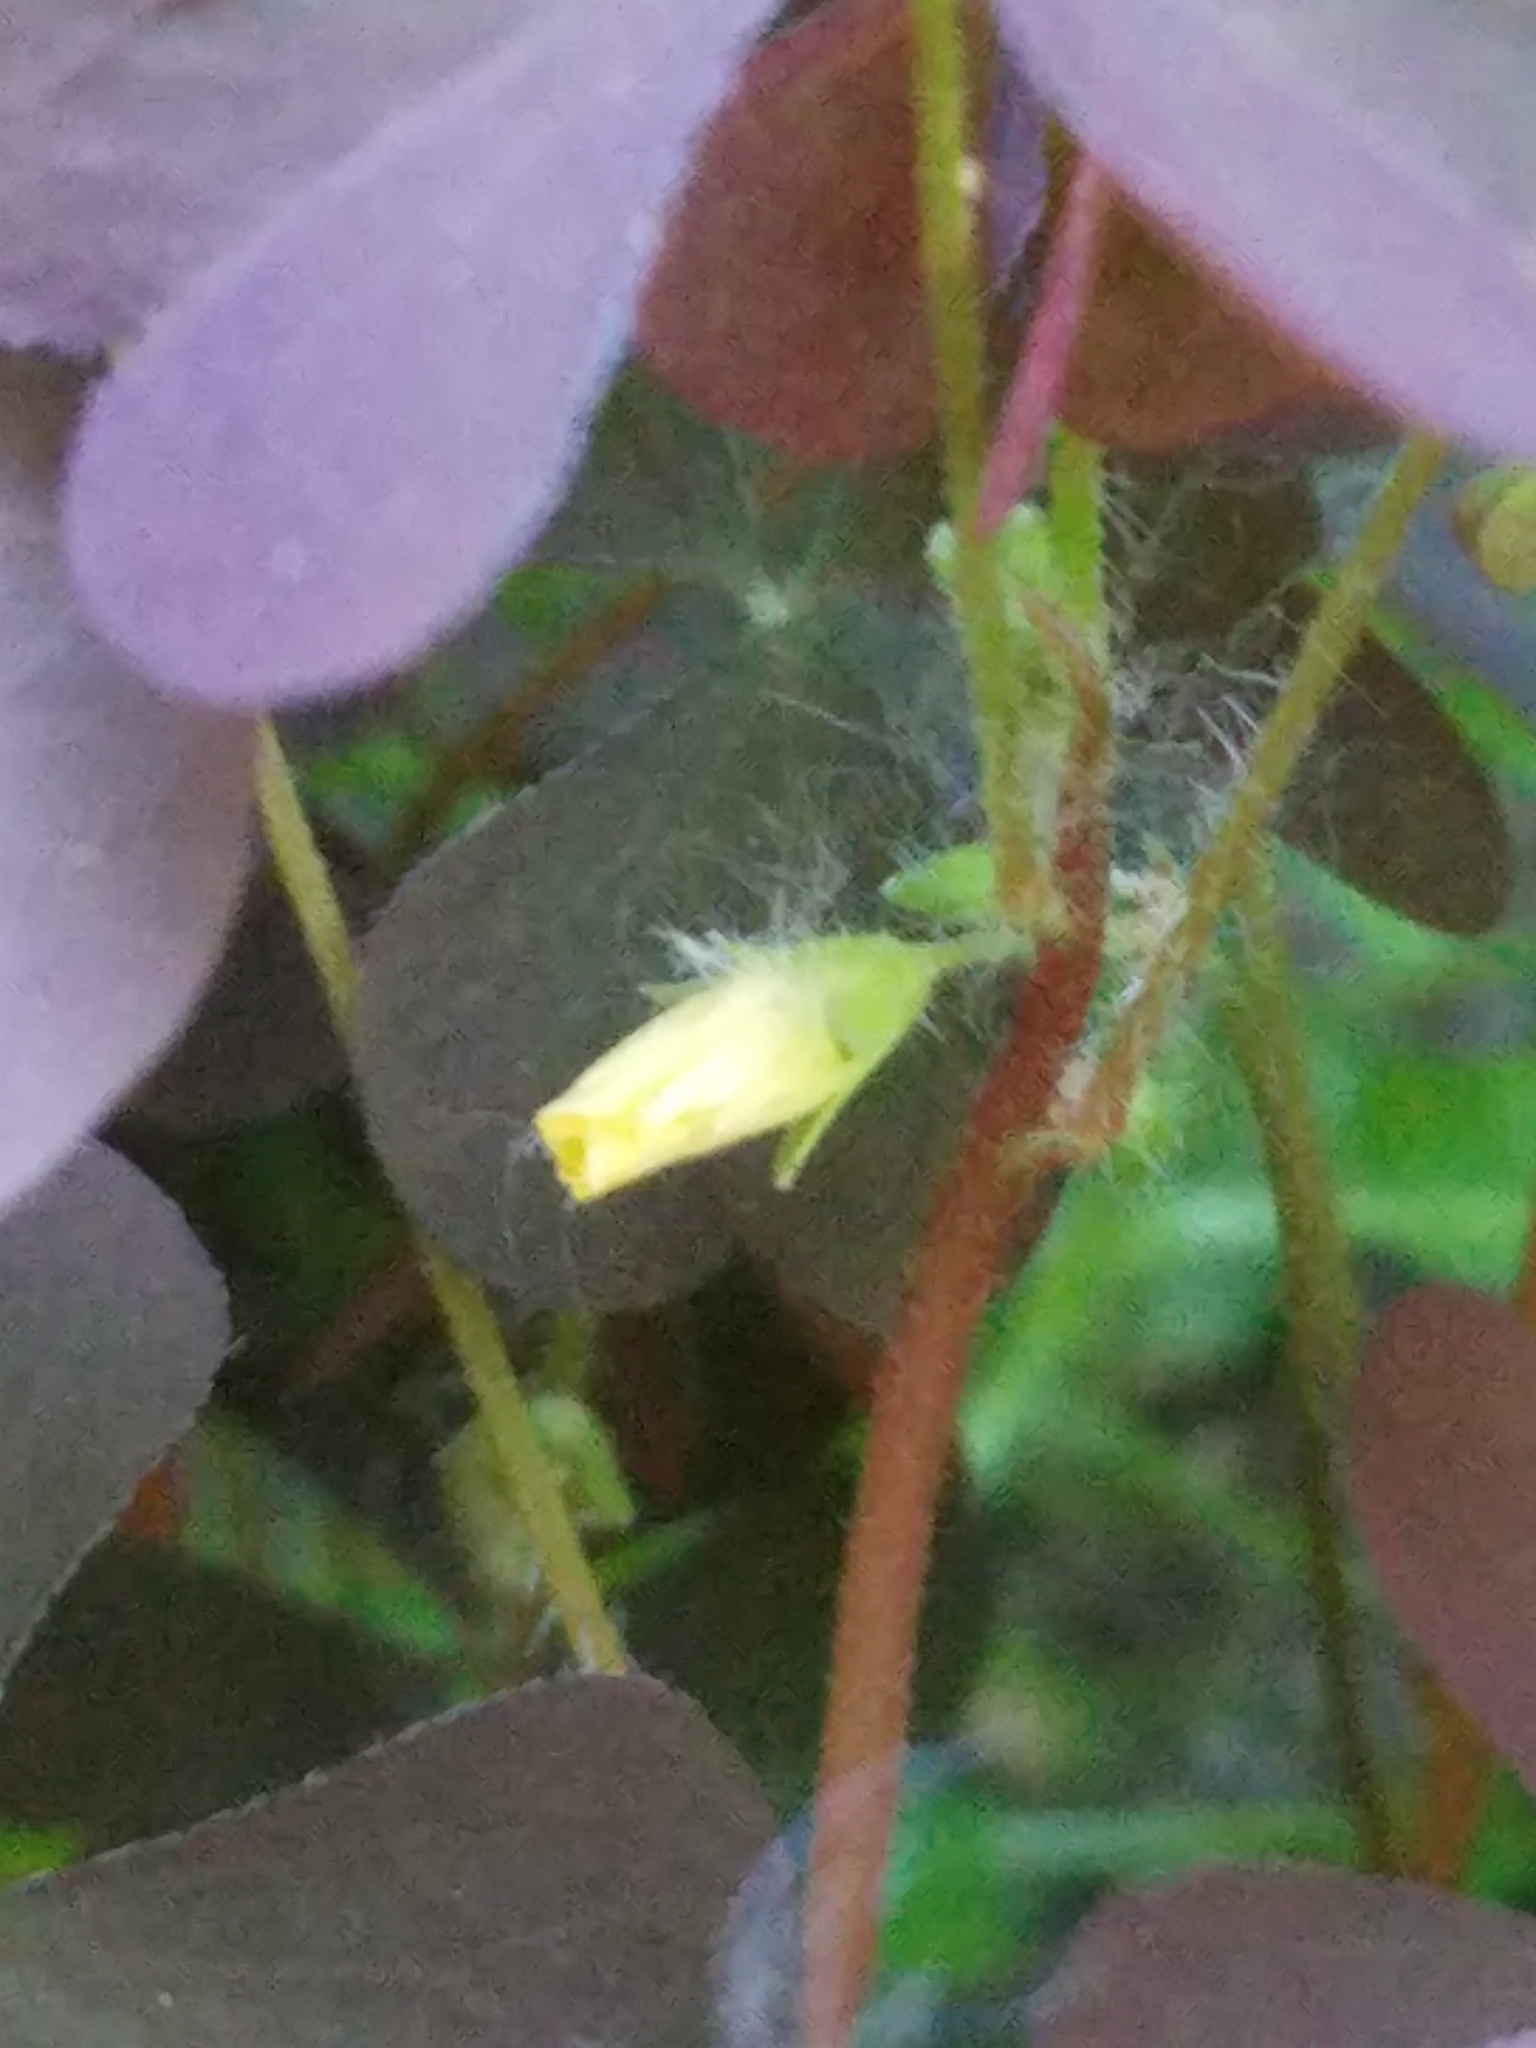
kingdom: Plantae
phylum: Tracheophyta
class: Magnoliopsida
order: Oxalidales
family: Oxalidaceae
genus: Oxalis
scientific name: Oxalis stricta
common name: Upright yellow-sorrel
